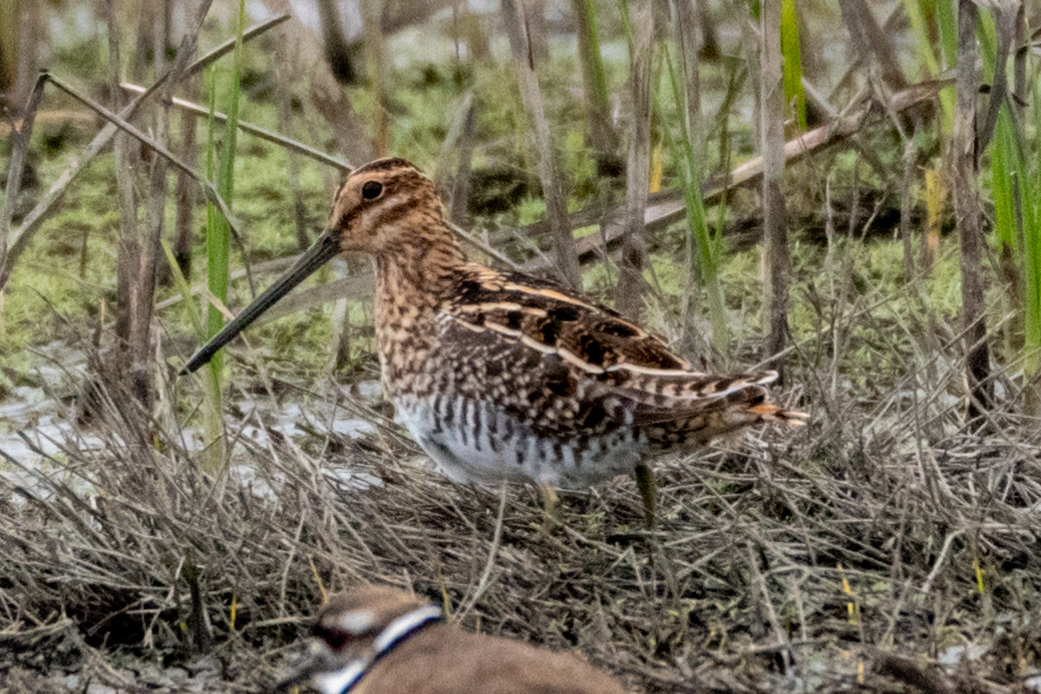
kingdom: Animalia
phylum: Chordata
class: Aves
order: Charadriiformes
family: Scolopacidae
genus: Gallinago
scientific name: Gallinago delicata
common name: Wilson's snipe
